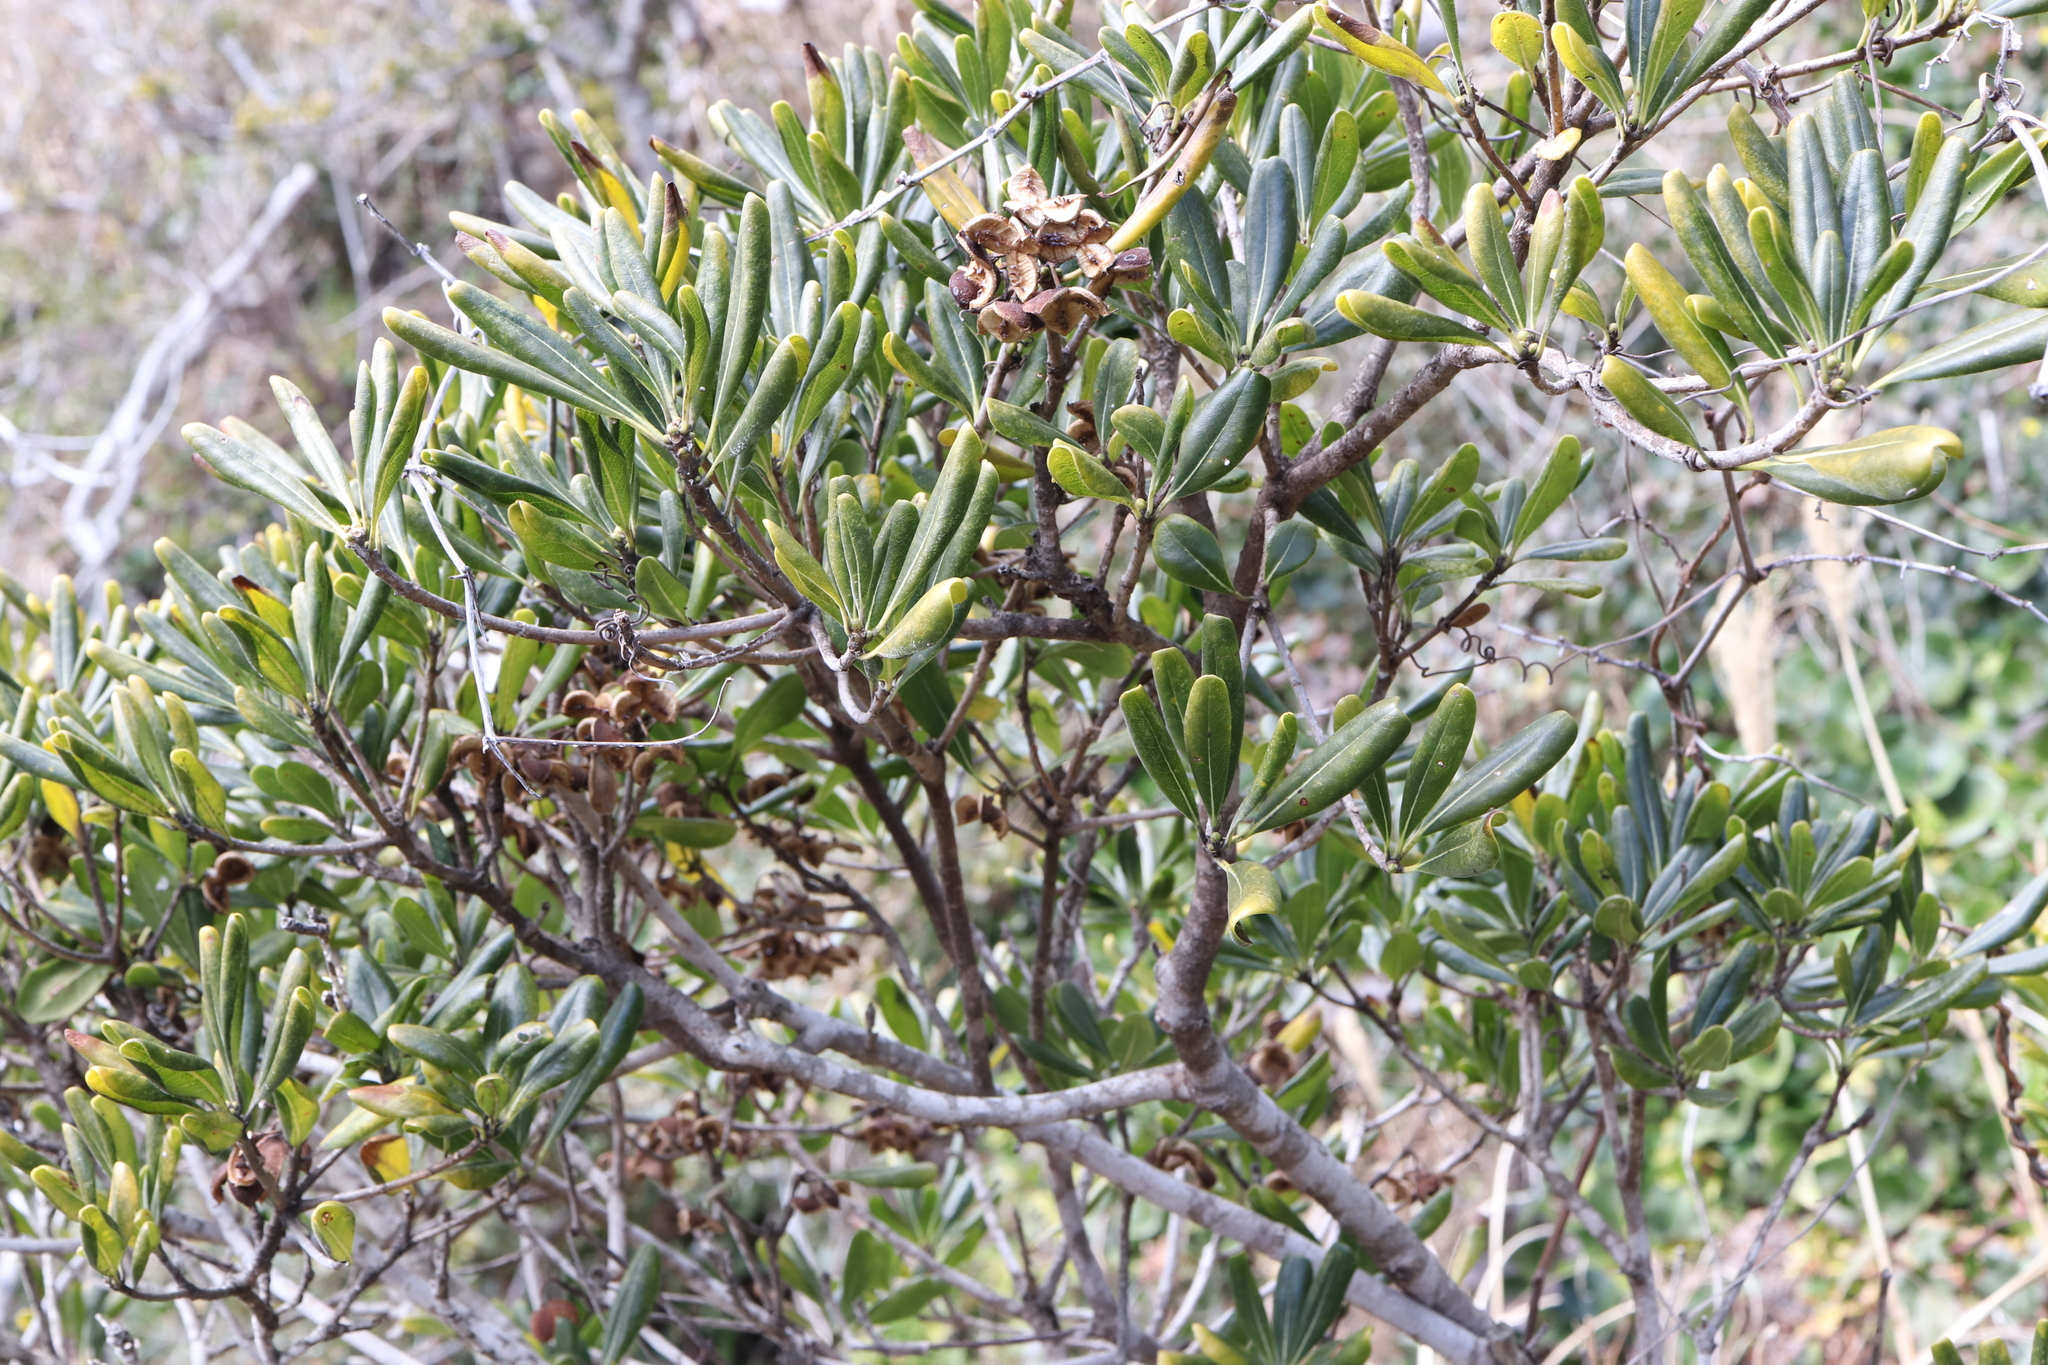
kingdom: Plantae
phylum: Tracheophyta
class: Magnoliopsida
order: Apiales
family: Pittosporaceae
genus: Pittosporum
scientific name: Pittosporum tobira
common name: Japanese cheesewood
